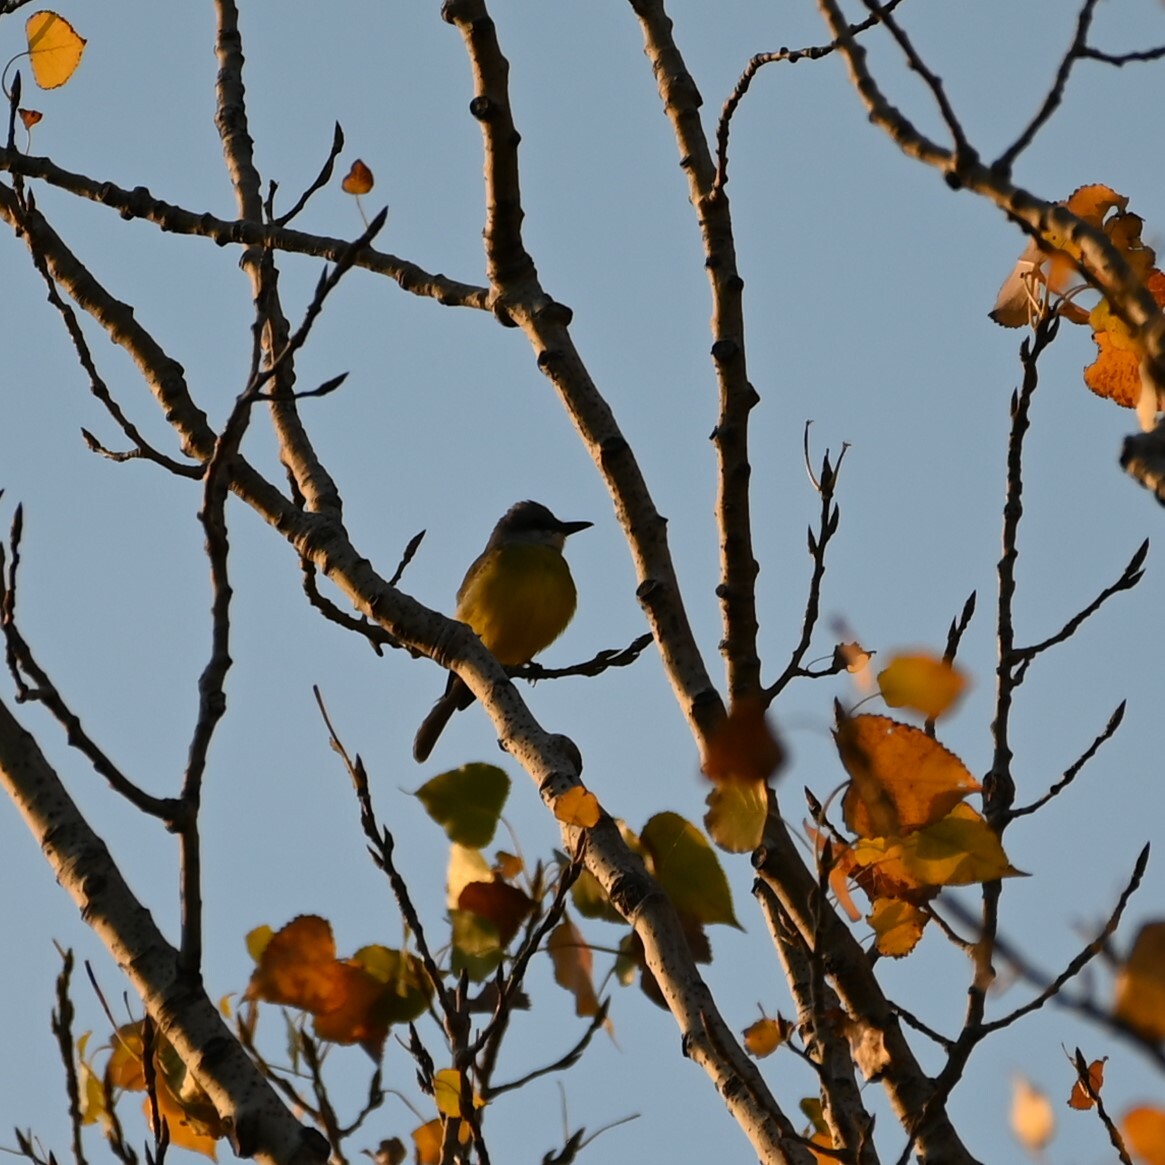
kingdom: Animalia
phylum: Chordata
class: Aves
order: Passeriformes
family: Tyrannidae
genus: Tyrannus
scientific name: Tyrannus melancholicus
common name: Tropical kingbird
